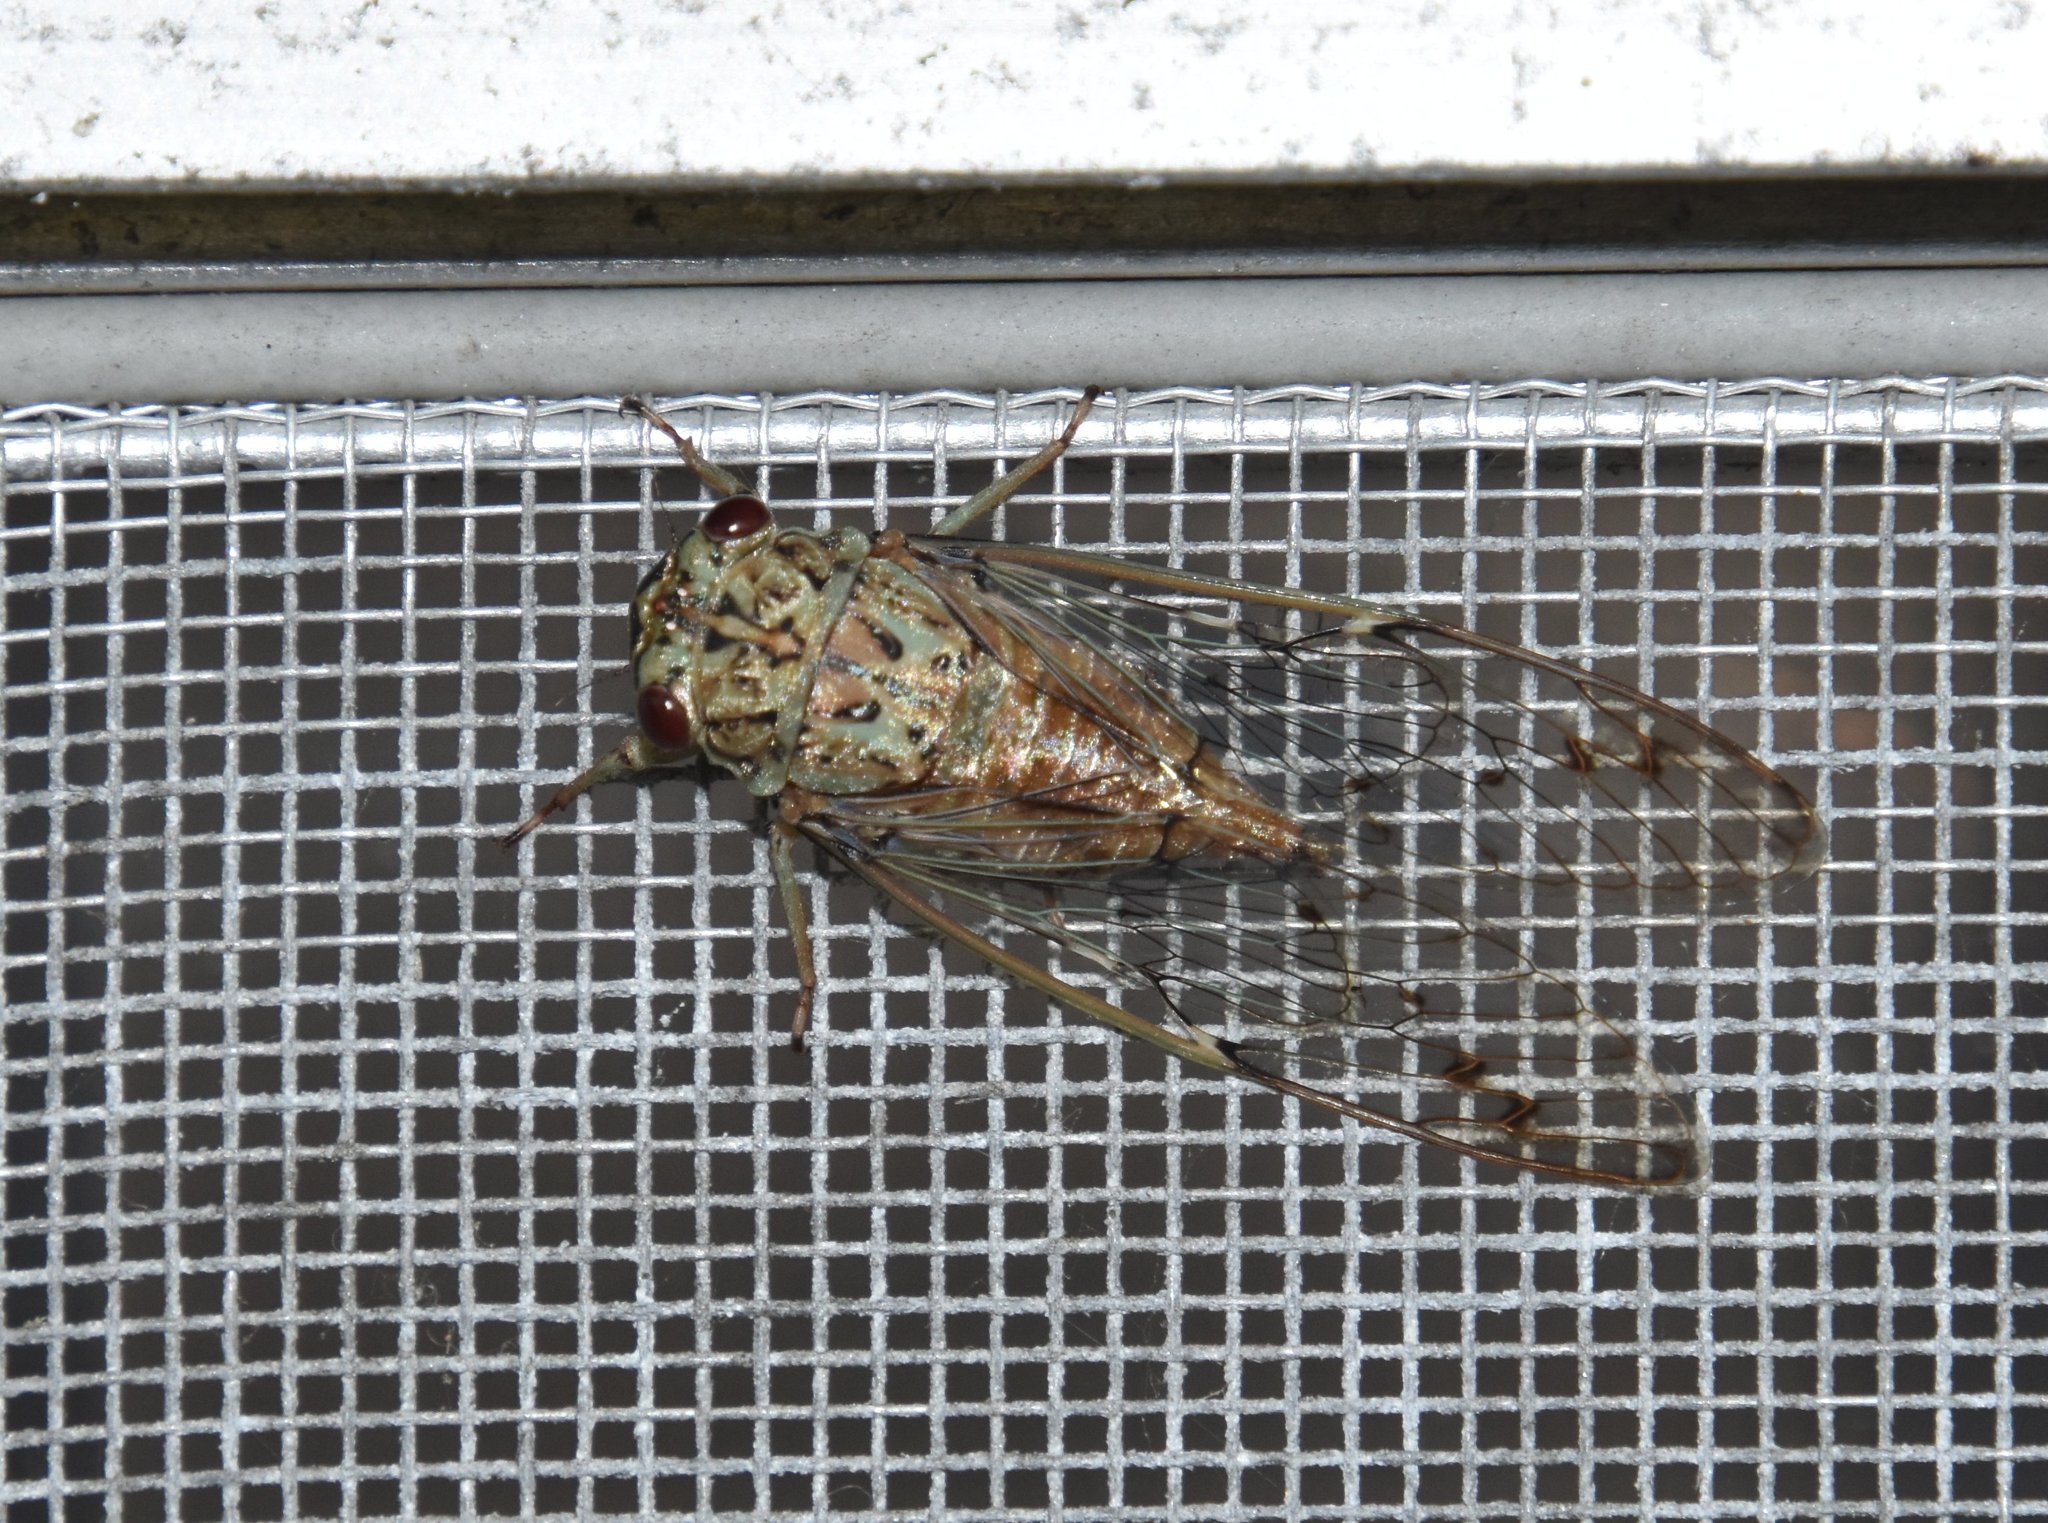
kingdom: Animalia
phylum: Arthropoda
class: Insecta
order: Hemiptera
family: Cicadidae
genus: Neocicada
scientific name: Neocicada hieroglyphica
